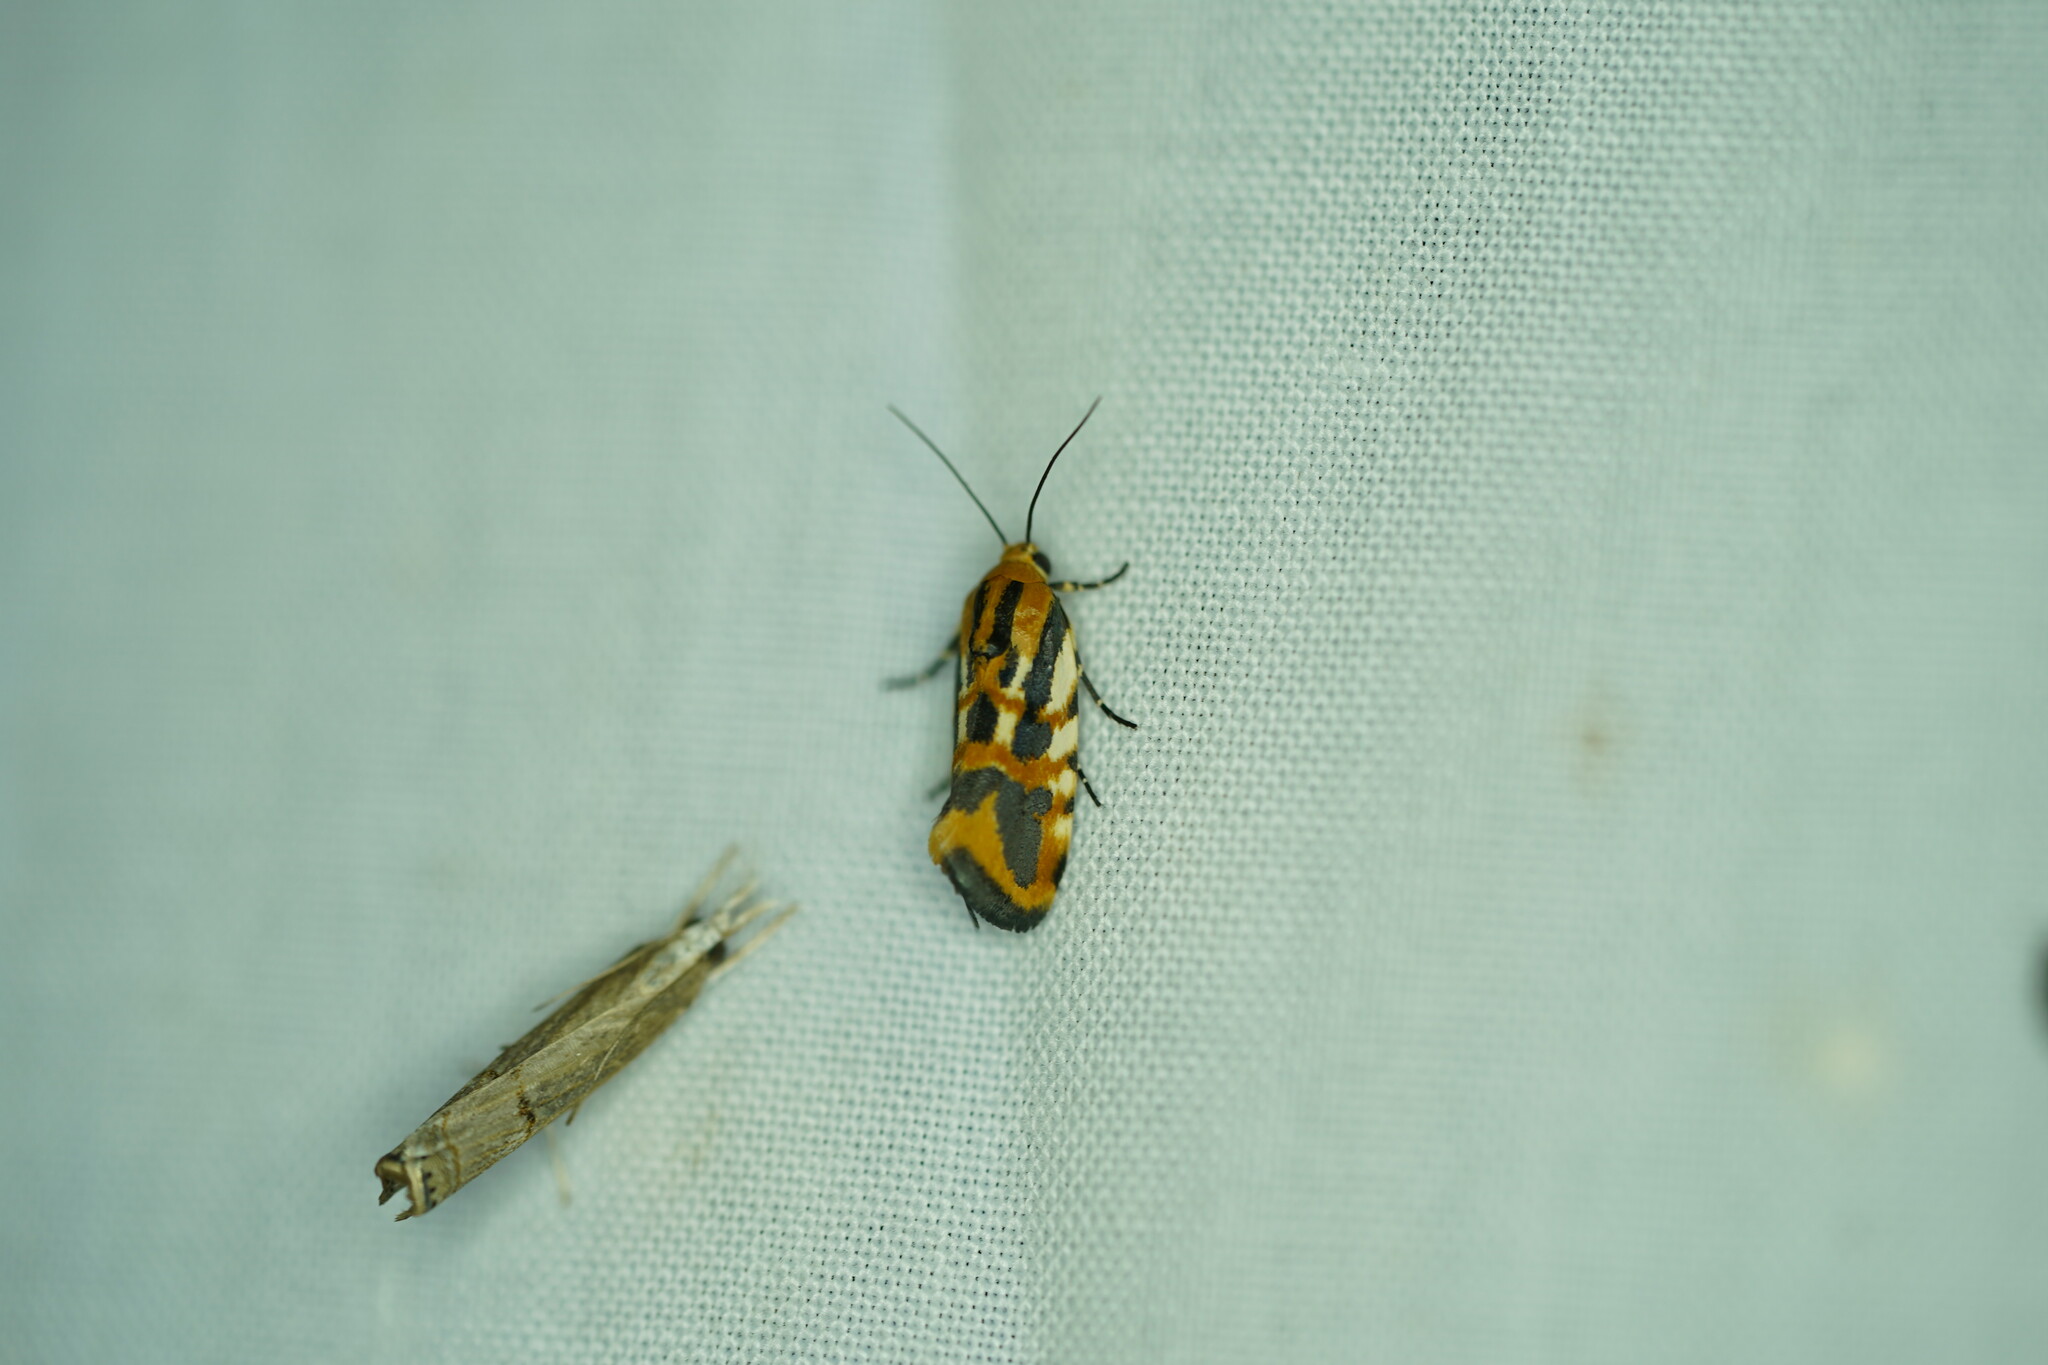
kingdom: Animalia
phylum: Arthropoda
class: Insecta
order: Lepidoptera
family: Noctuidae
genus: Acontia
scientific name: Acontia leo
